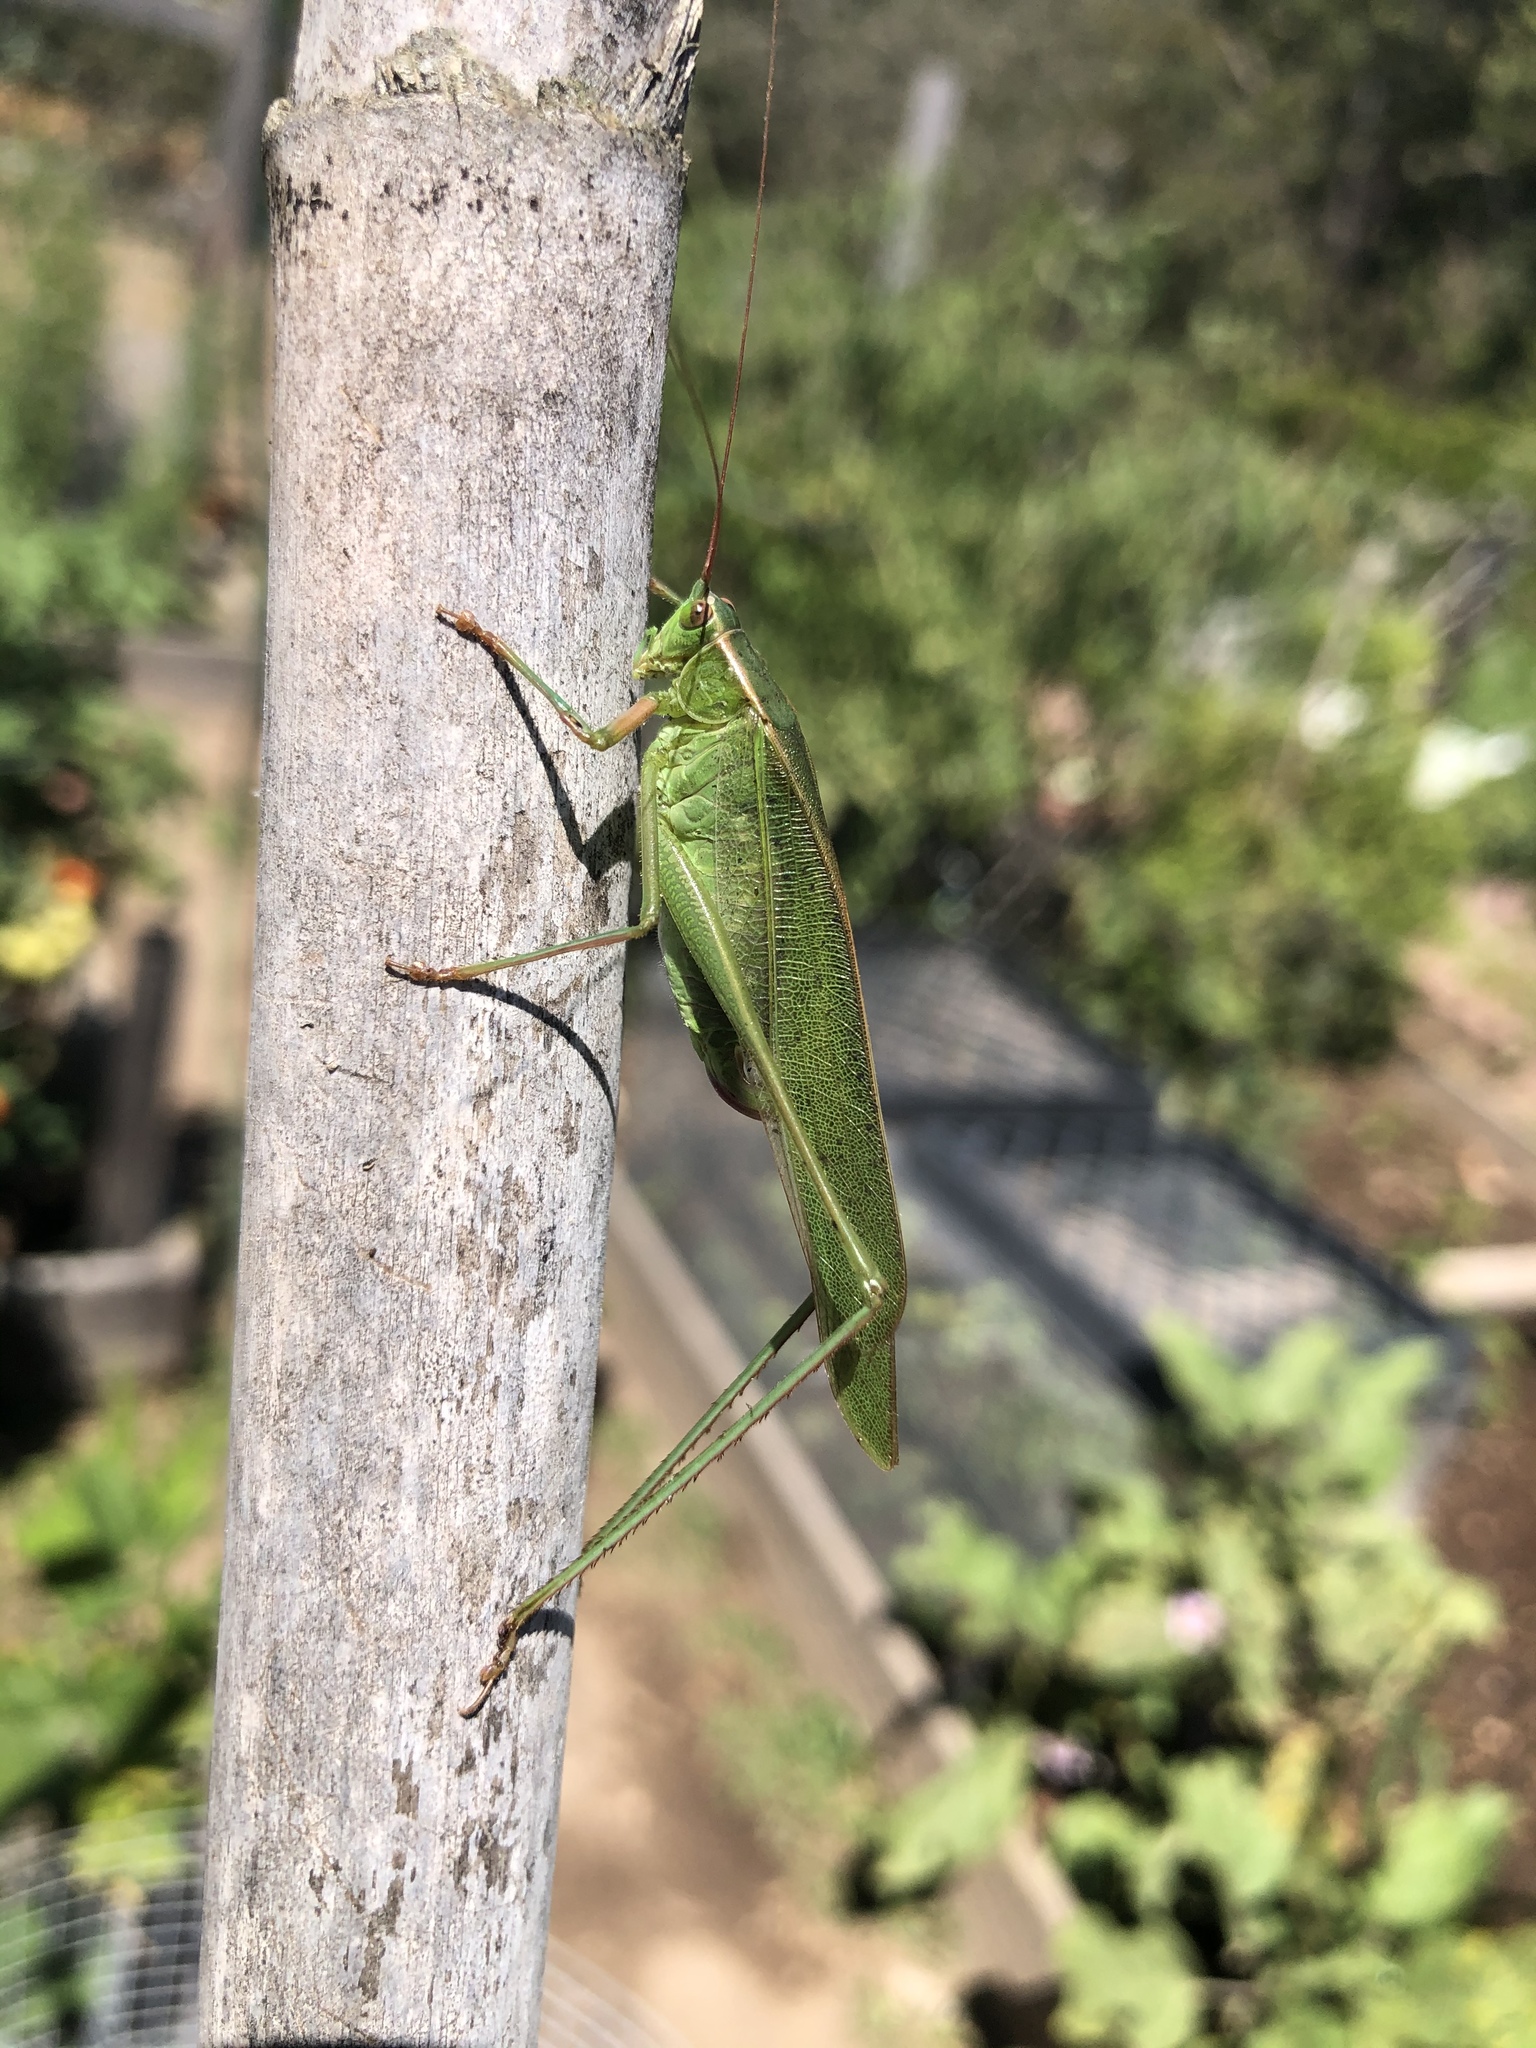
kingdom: Animalia
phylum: Arthropoda
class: Insecta
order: Orthoptera
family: Tettigoniidae
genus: Scudderia
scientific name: Scudderia
